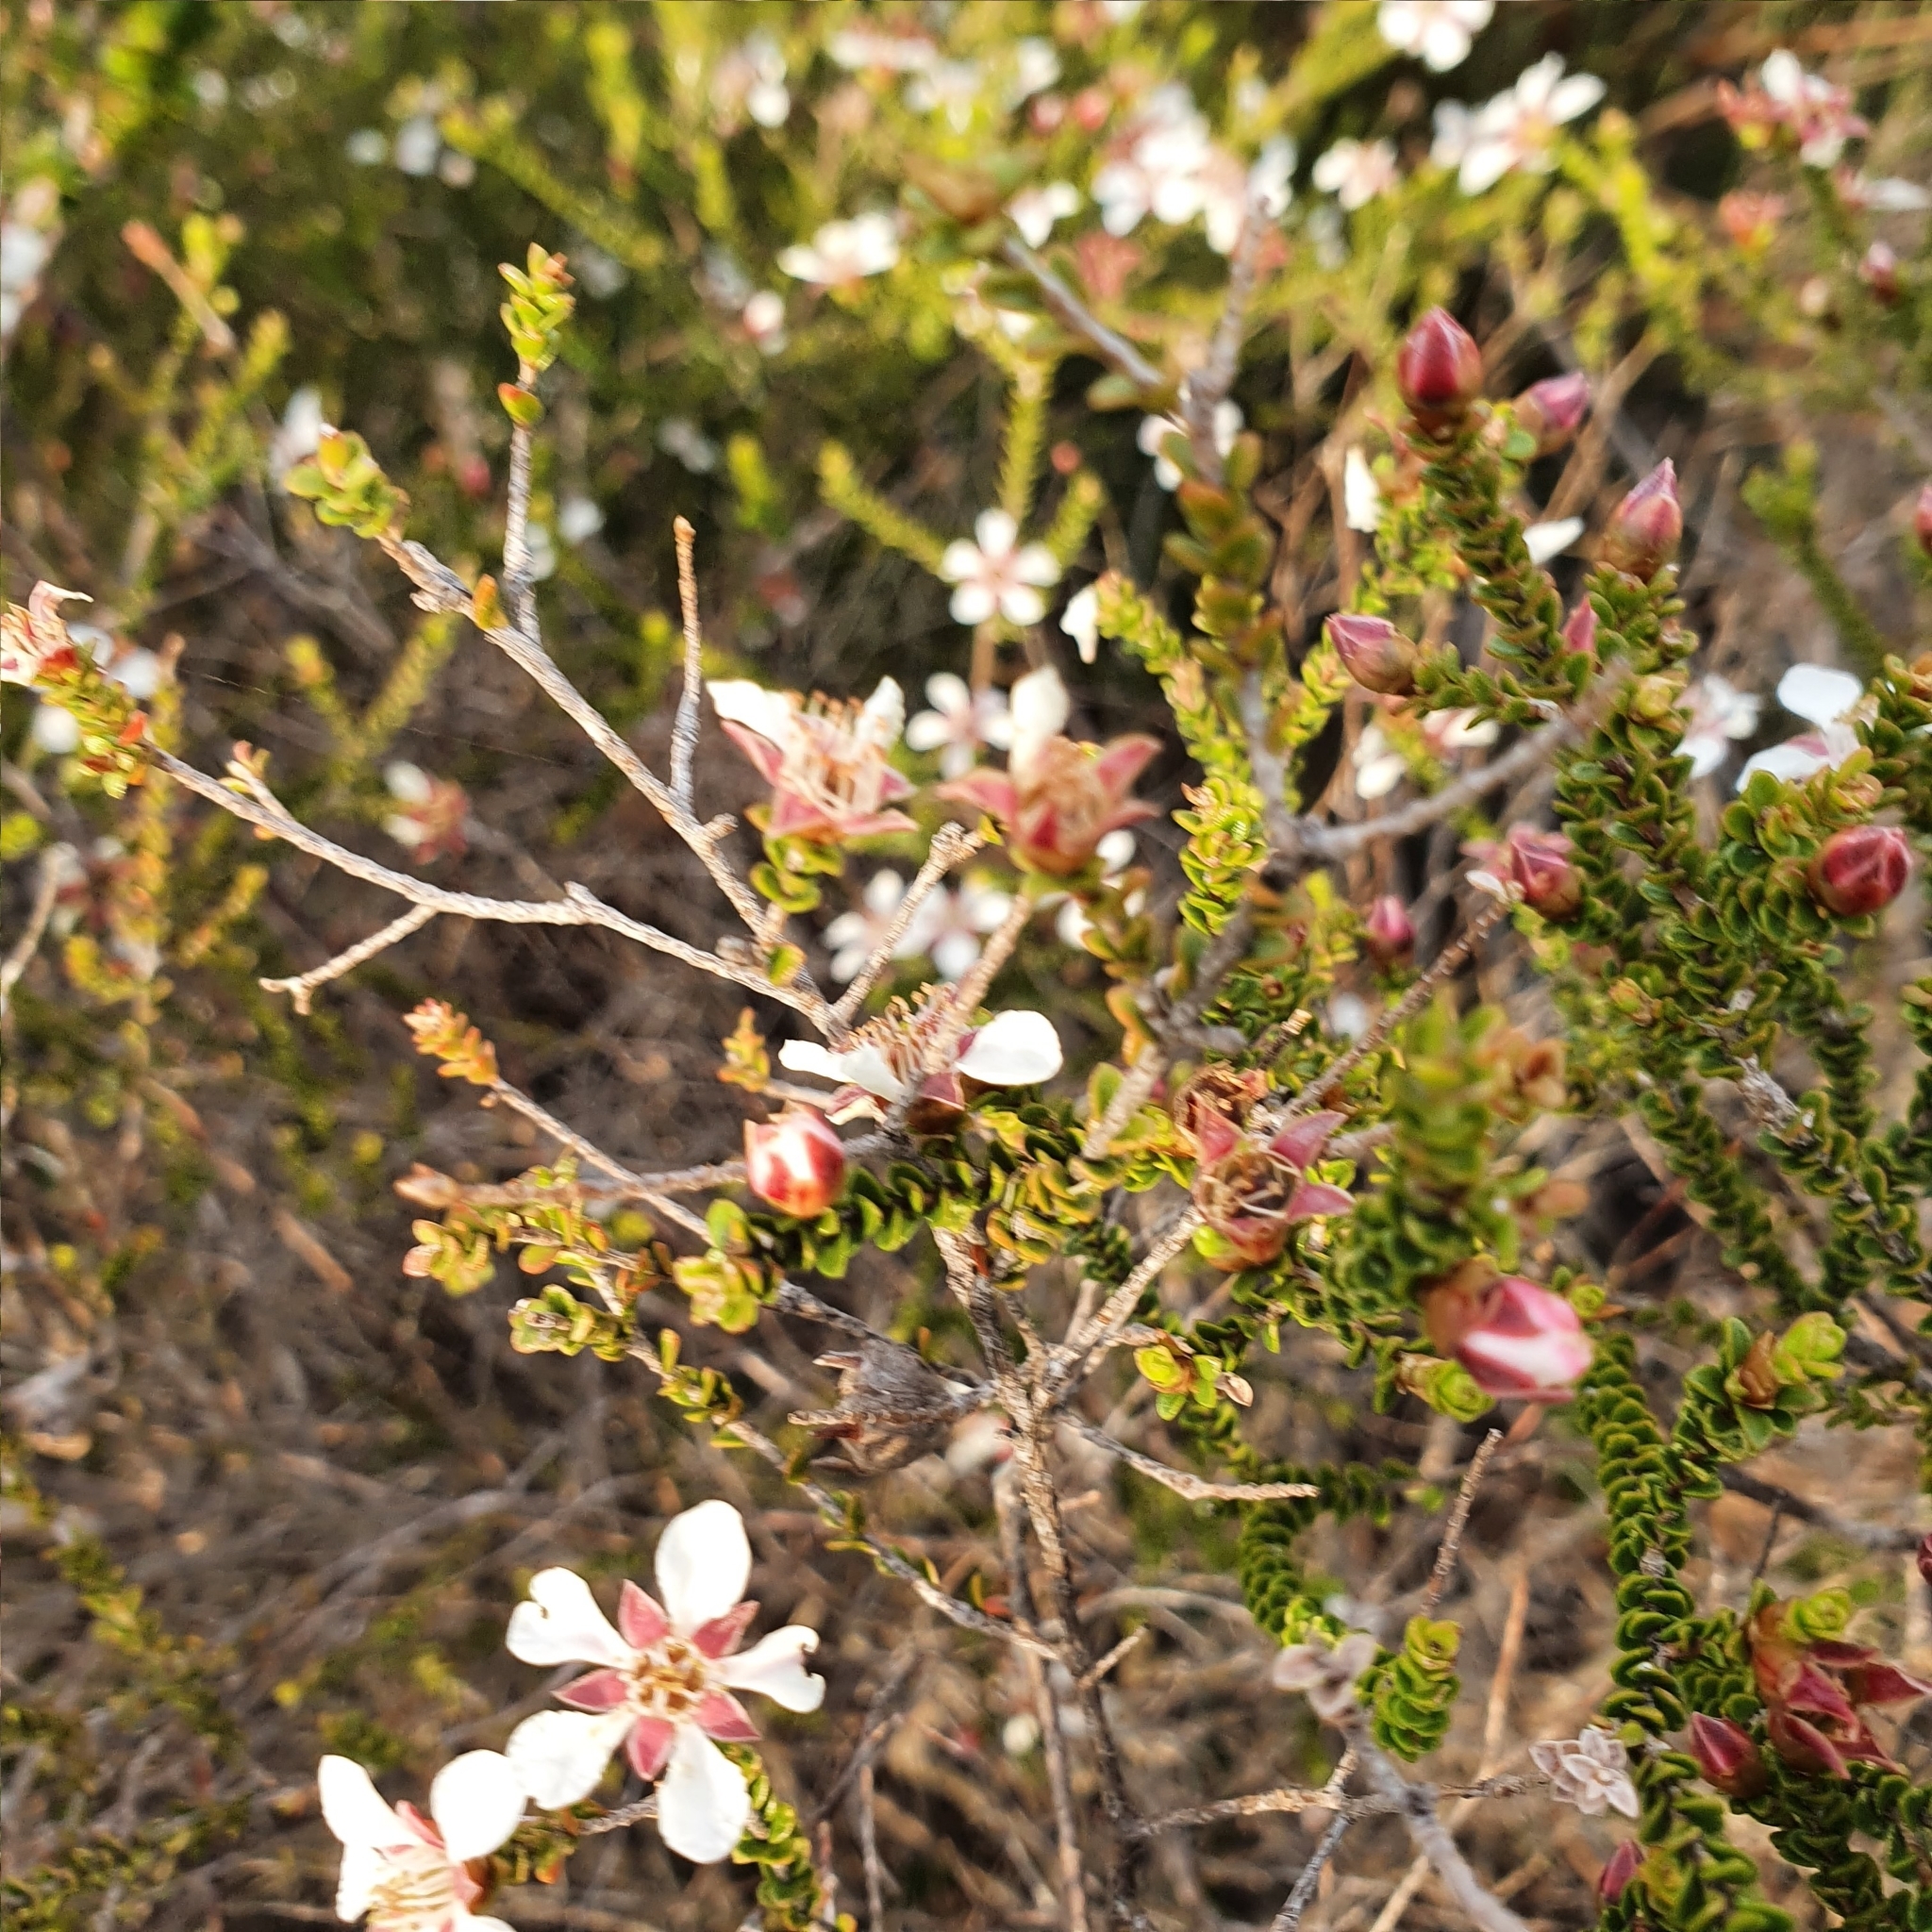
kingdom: Plantae
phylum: Tracheophyta
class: Magnoliopsida
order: Myrtales
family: Myrtaceae
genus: Leptospermum
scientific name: Leptospermum epacridoideum
